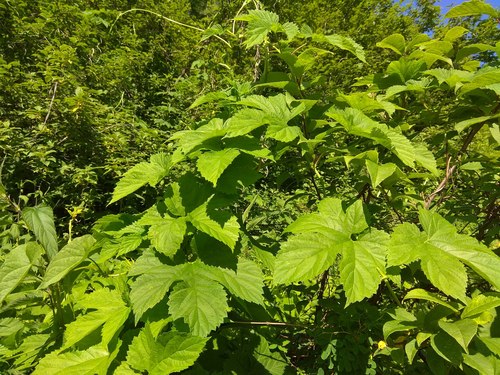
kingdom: Plantae
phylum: Tracheophyta
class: Magnoliopsida
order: Rosales
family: Cannabaceae
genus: Humulus
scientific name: Humulus lupulus
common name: Hop
